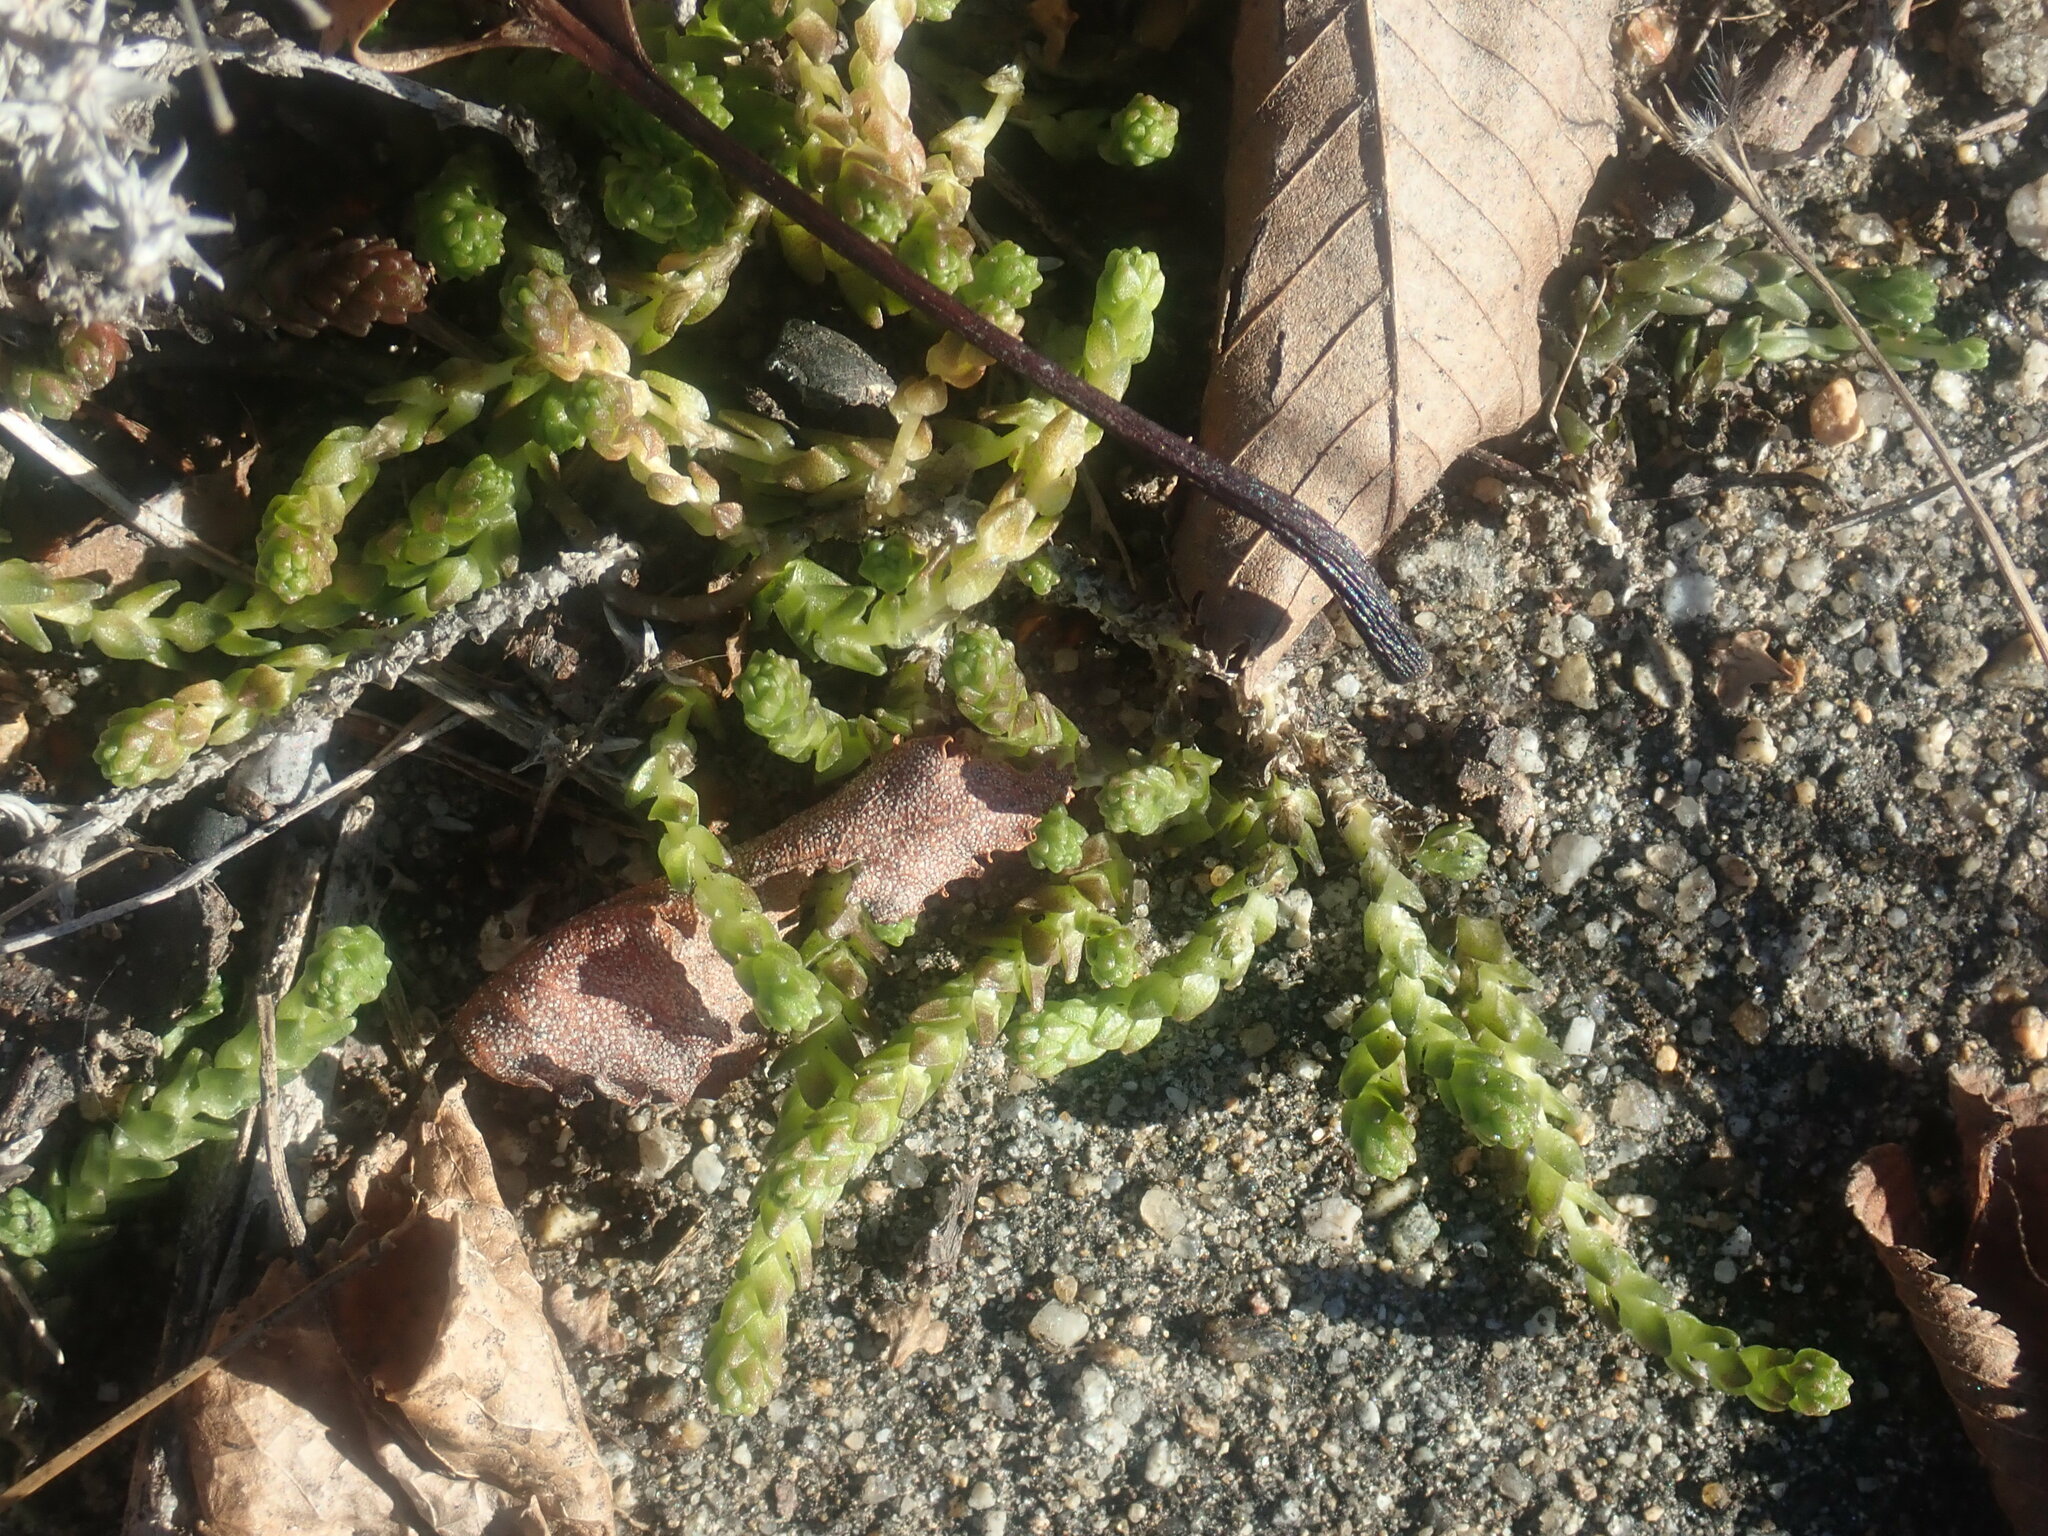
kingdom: Plantae
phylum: Tracheophyta
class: Magnoliopsida
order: Saxifragales
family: Crassulaceae
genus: Sedum
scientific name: Sedum acre
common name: Biting stonecrop
